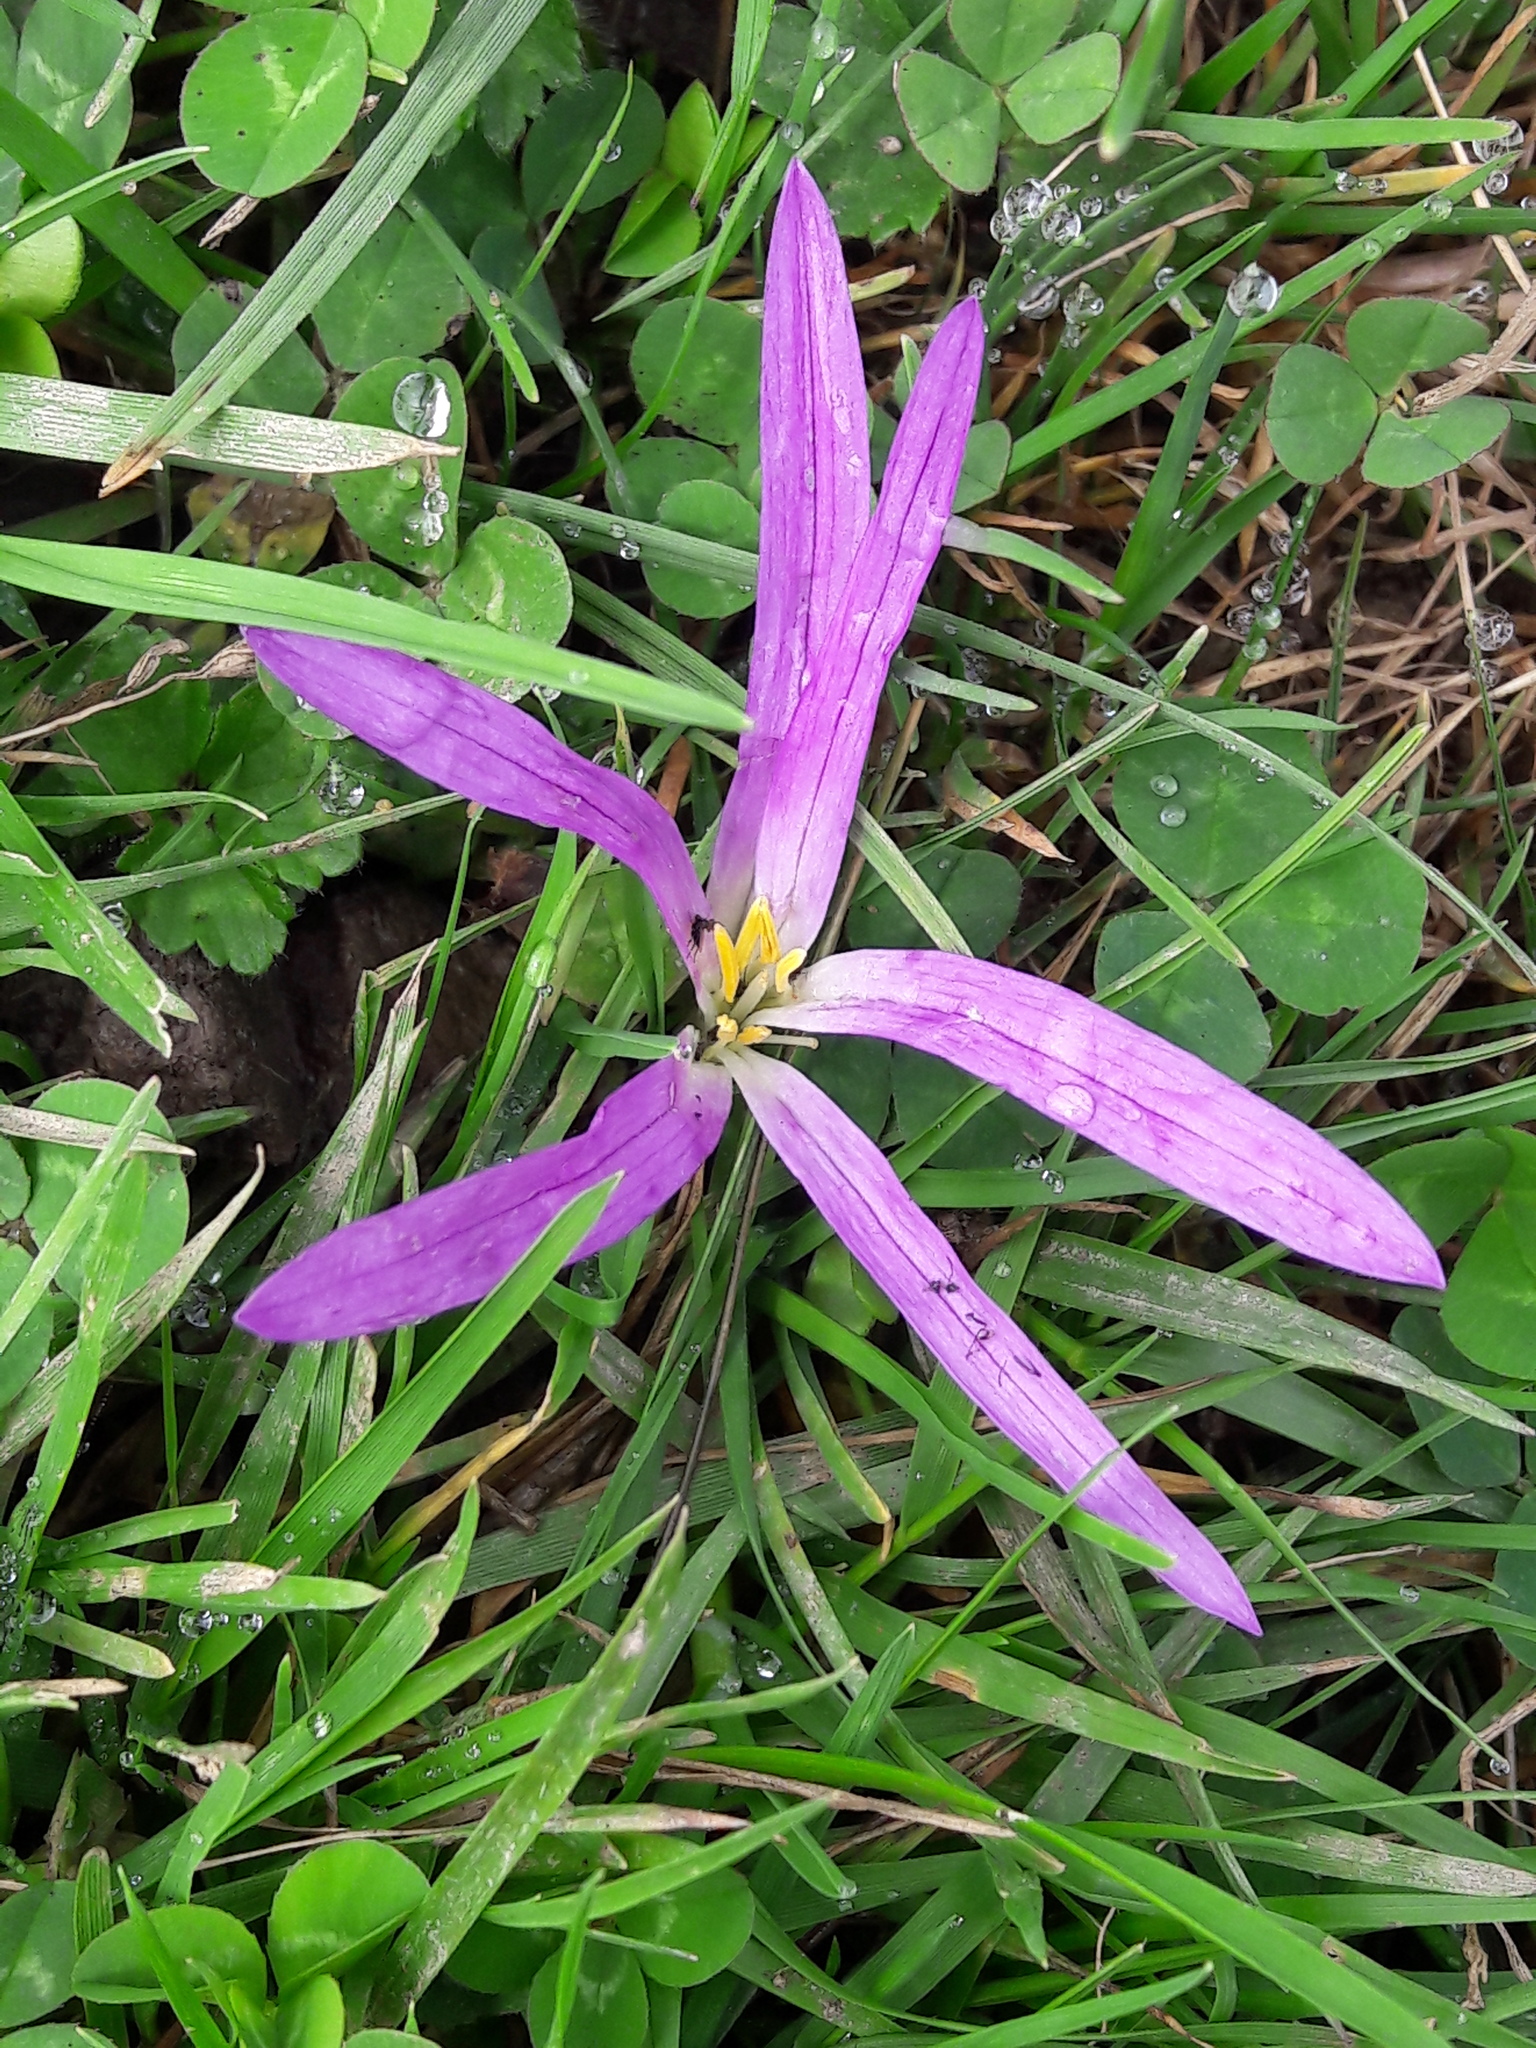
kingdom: Plantae
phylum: Tracheophyta
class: Liliopsida
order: Liliales
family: Colchicaceae
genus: Colchicum
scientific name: Colchicum montanum
